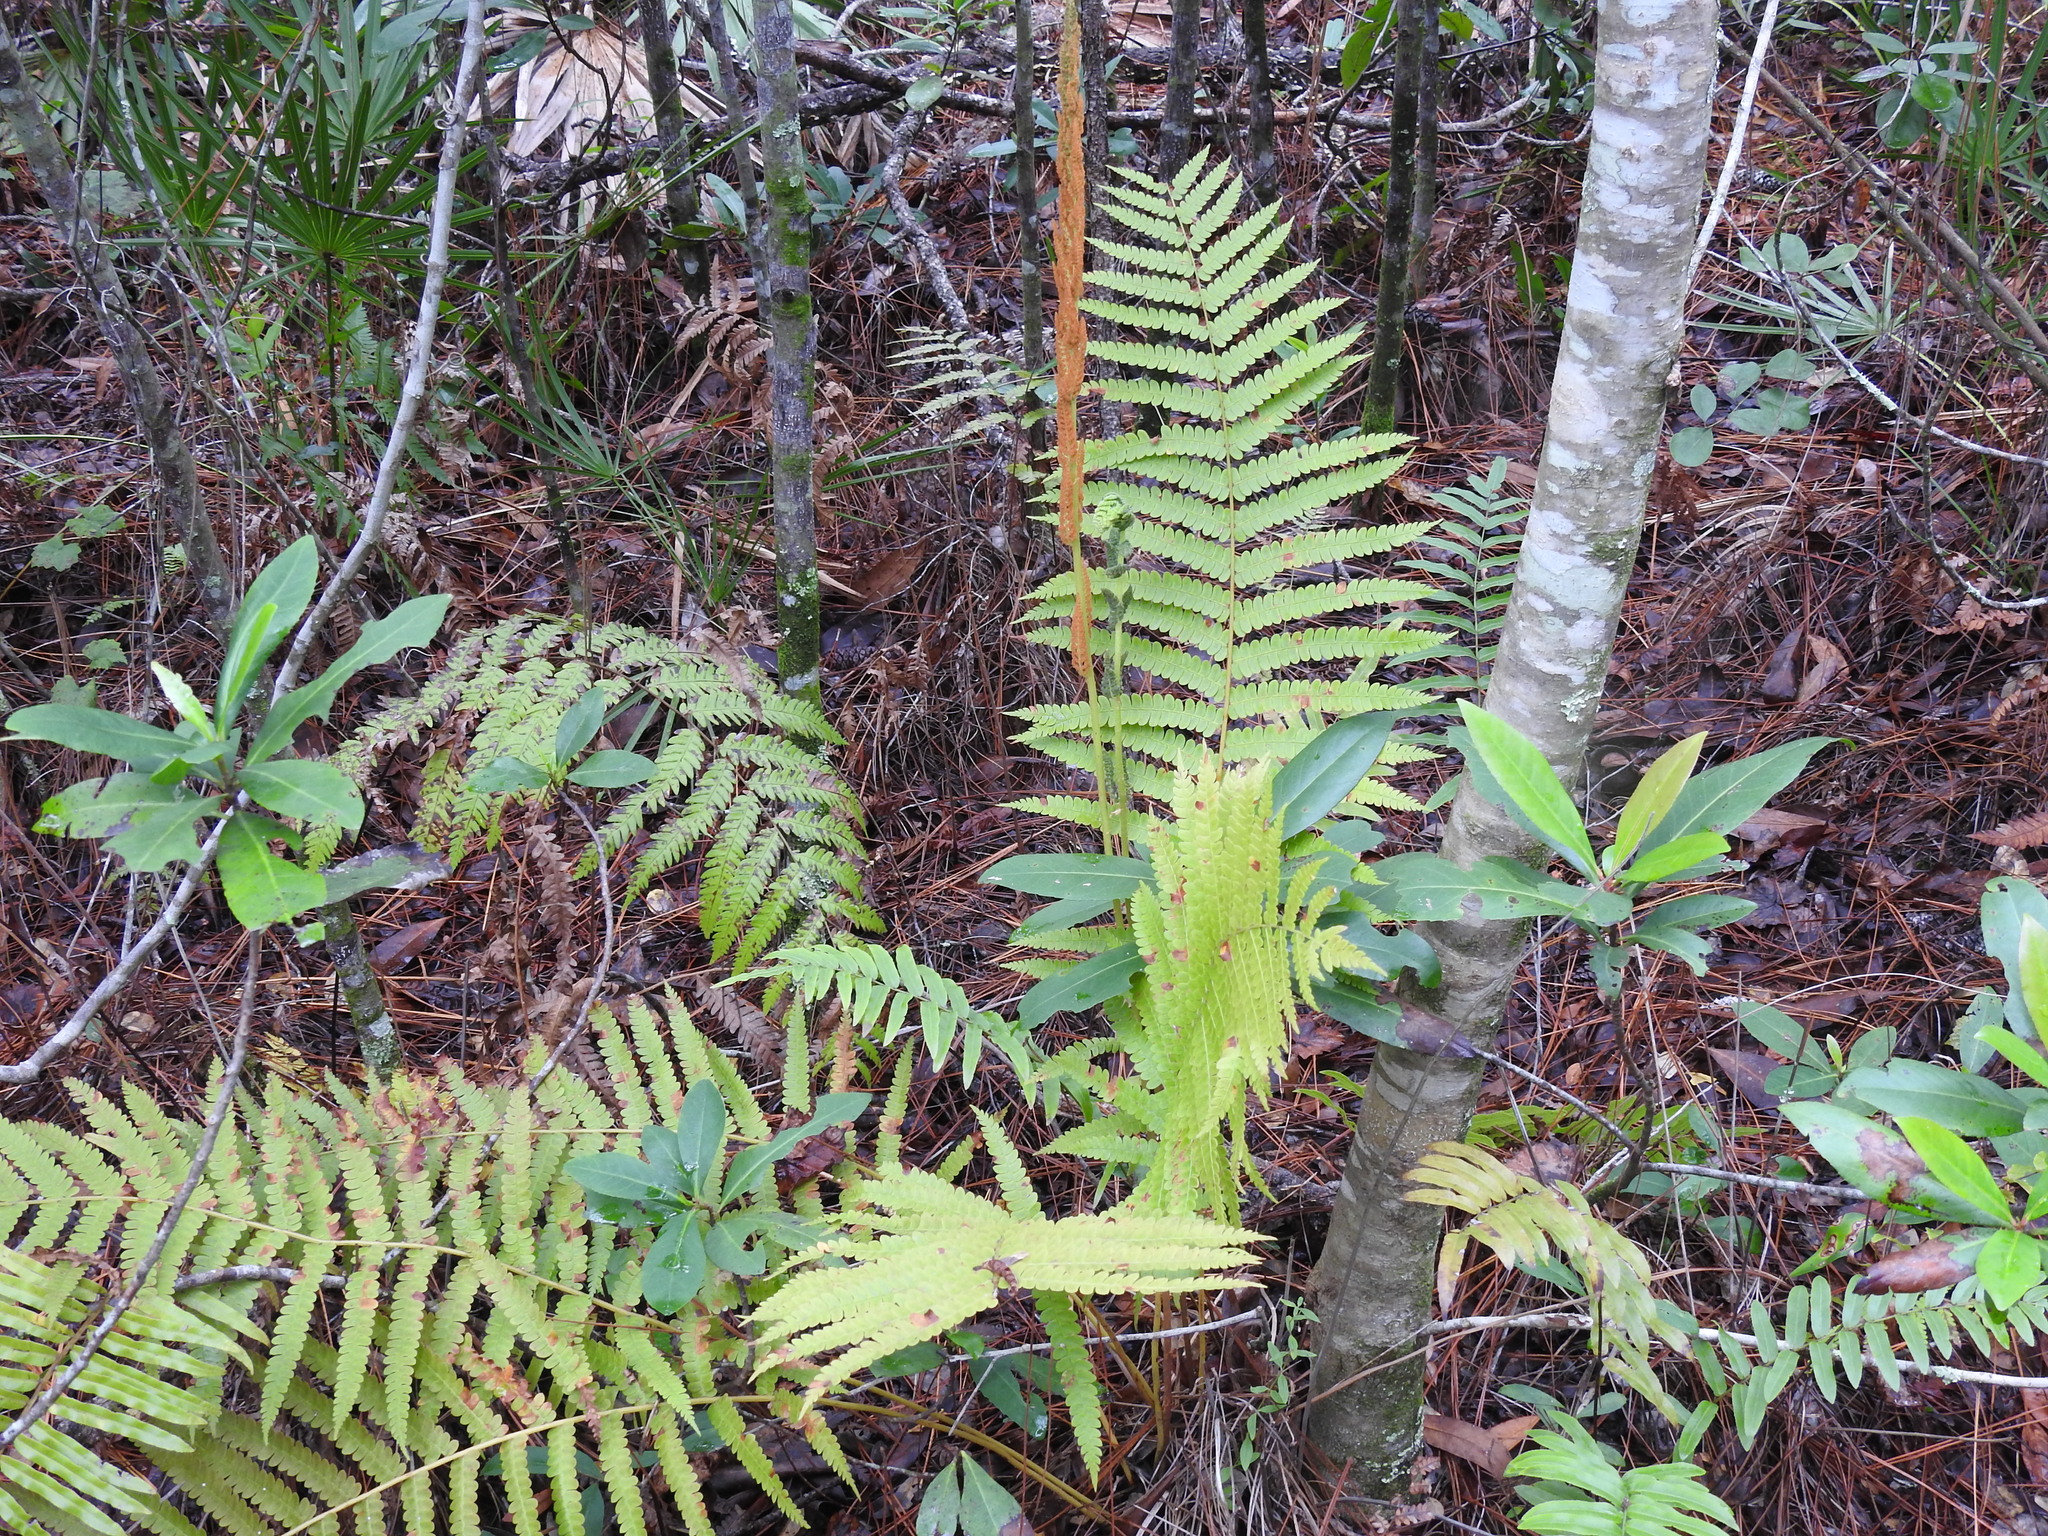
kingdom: Plantae
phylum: Tracheophyta
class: Polypodiopsida
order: Osmundales
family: Osmundaceae
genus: Osmundastrum
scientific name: Osmundastrum cinnamomeum
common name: Cinnamon fern
